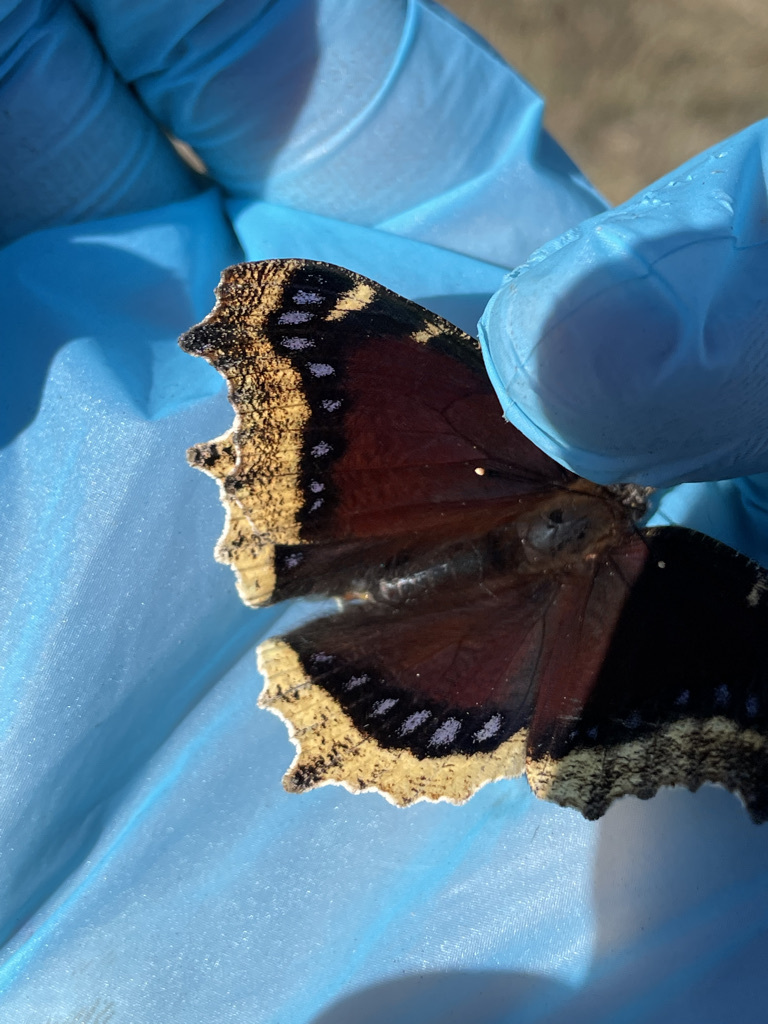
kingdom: Animalia
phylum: Arthropoda
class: Insecta
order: Lepidoptera
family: Nymphalidae
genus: Nymphalis
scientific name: Nymphalis antiopa
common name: Camberwell beauty
